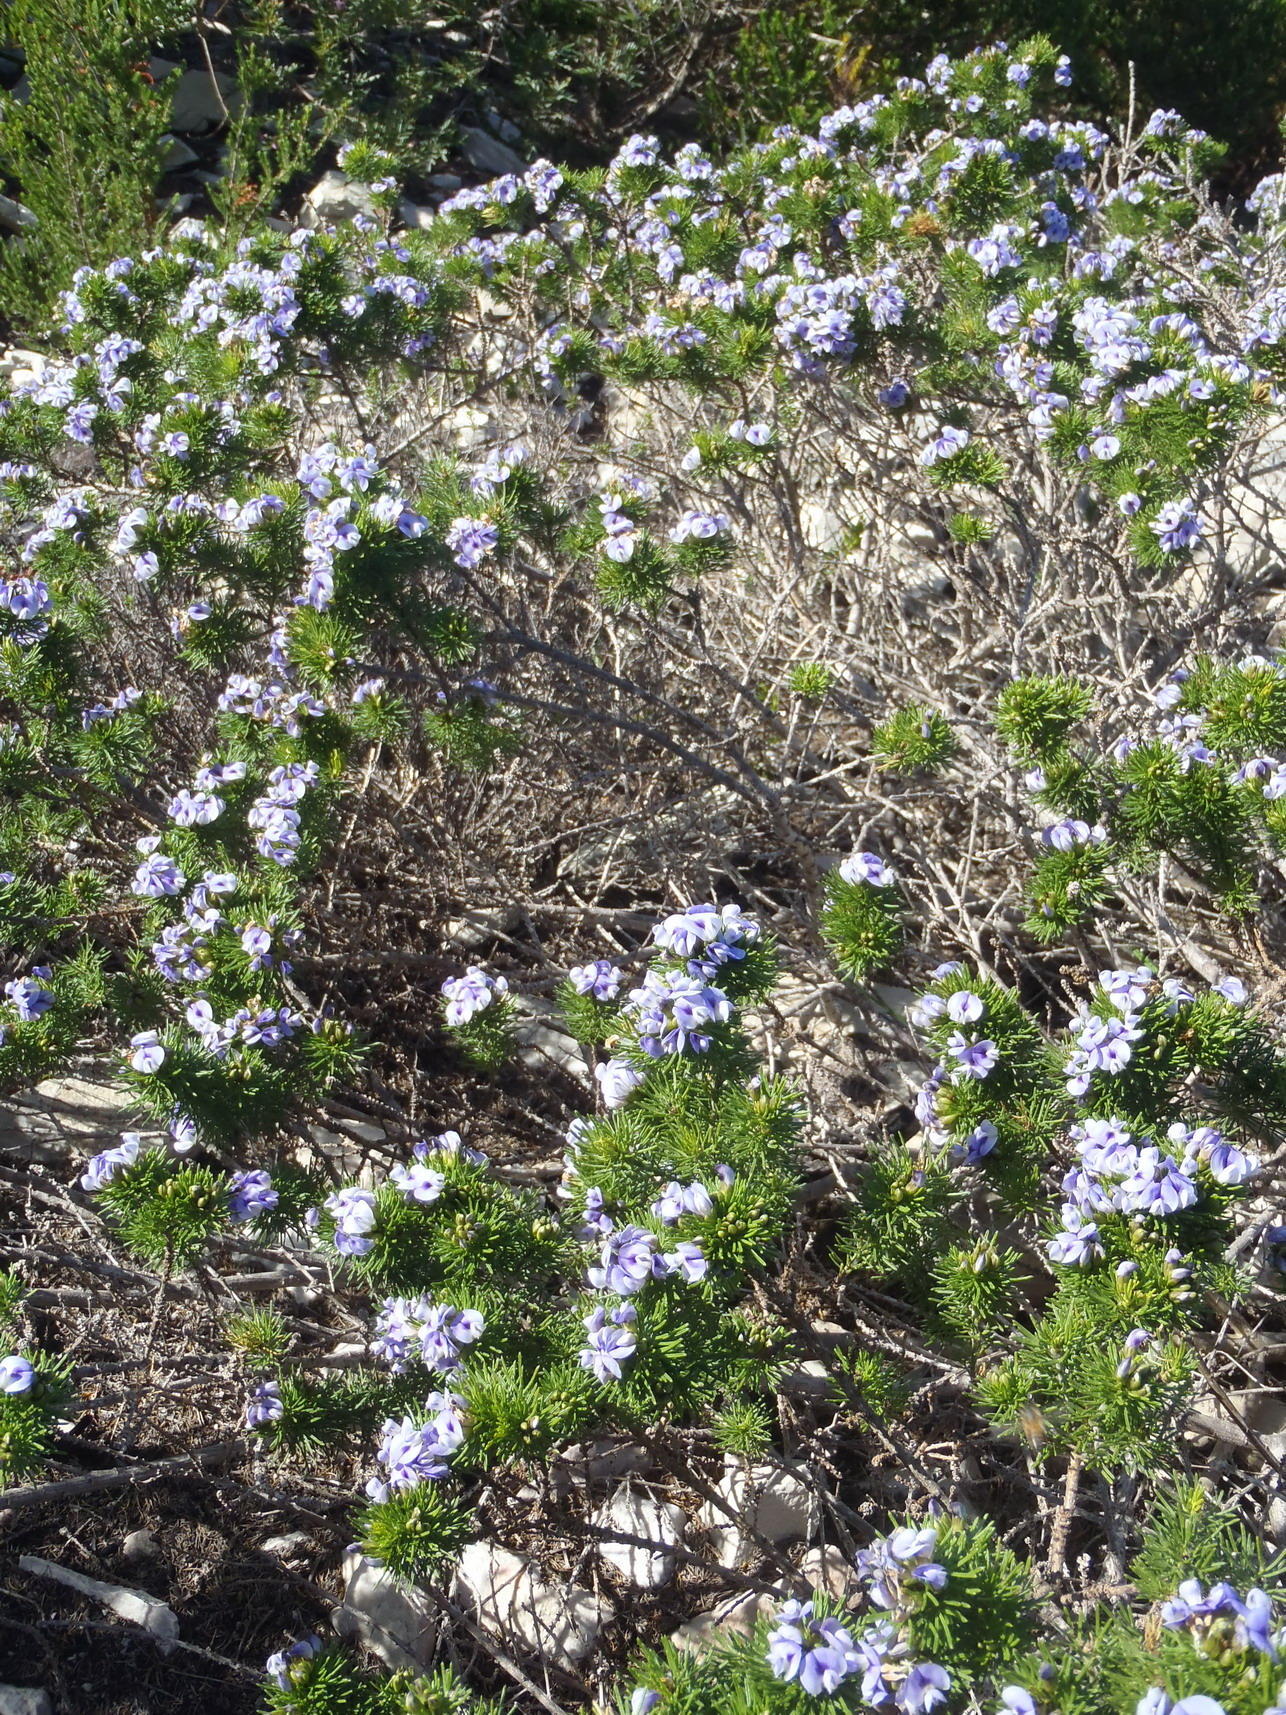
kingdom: Plantae
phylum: Tracheophyta
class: Magnoliopsida
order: Fabales
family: Fabaceae
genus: Psoralea
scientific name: Psoralea vanberkelae
